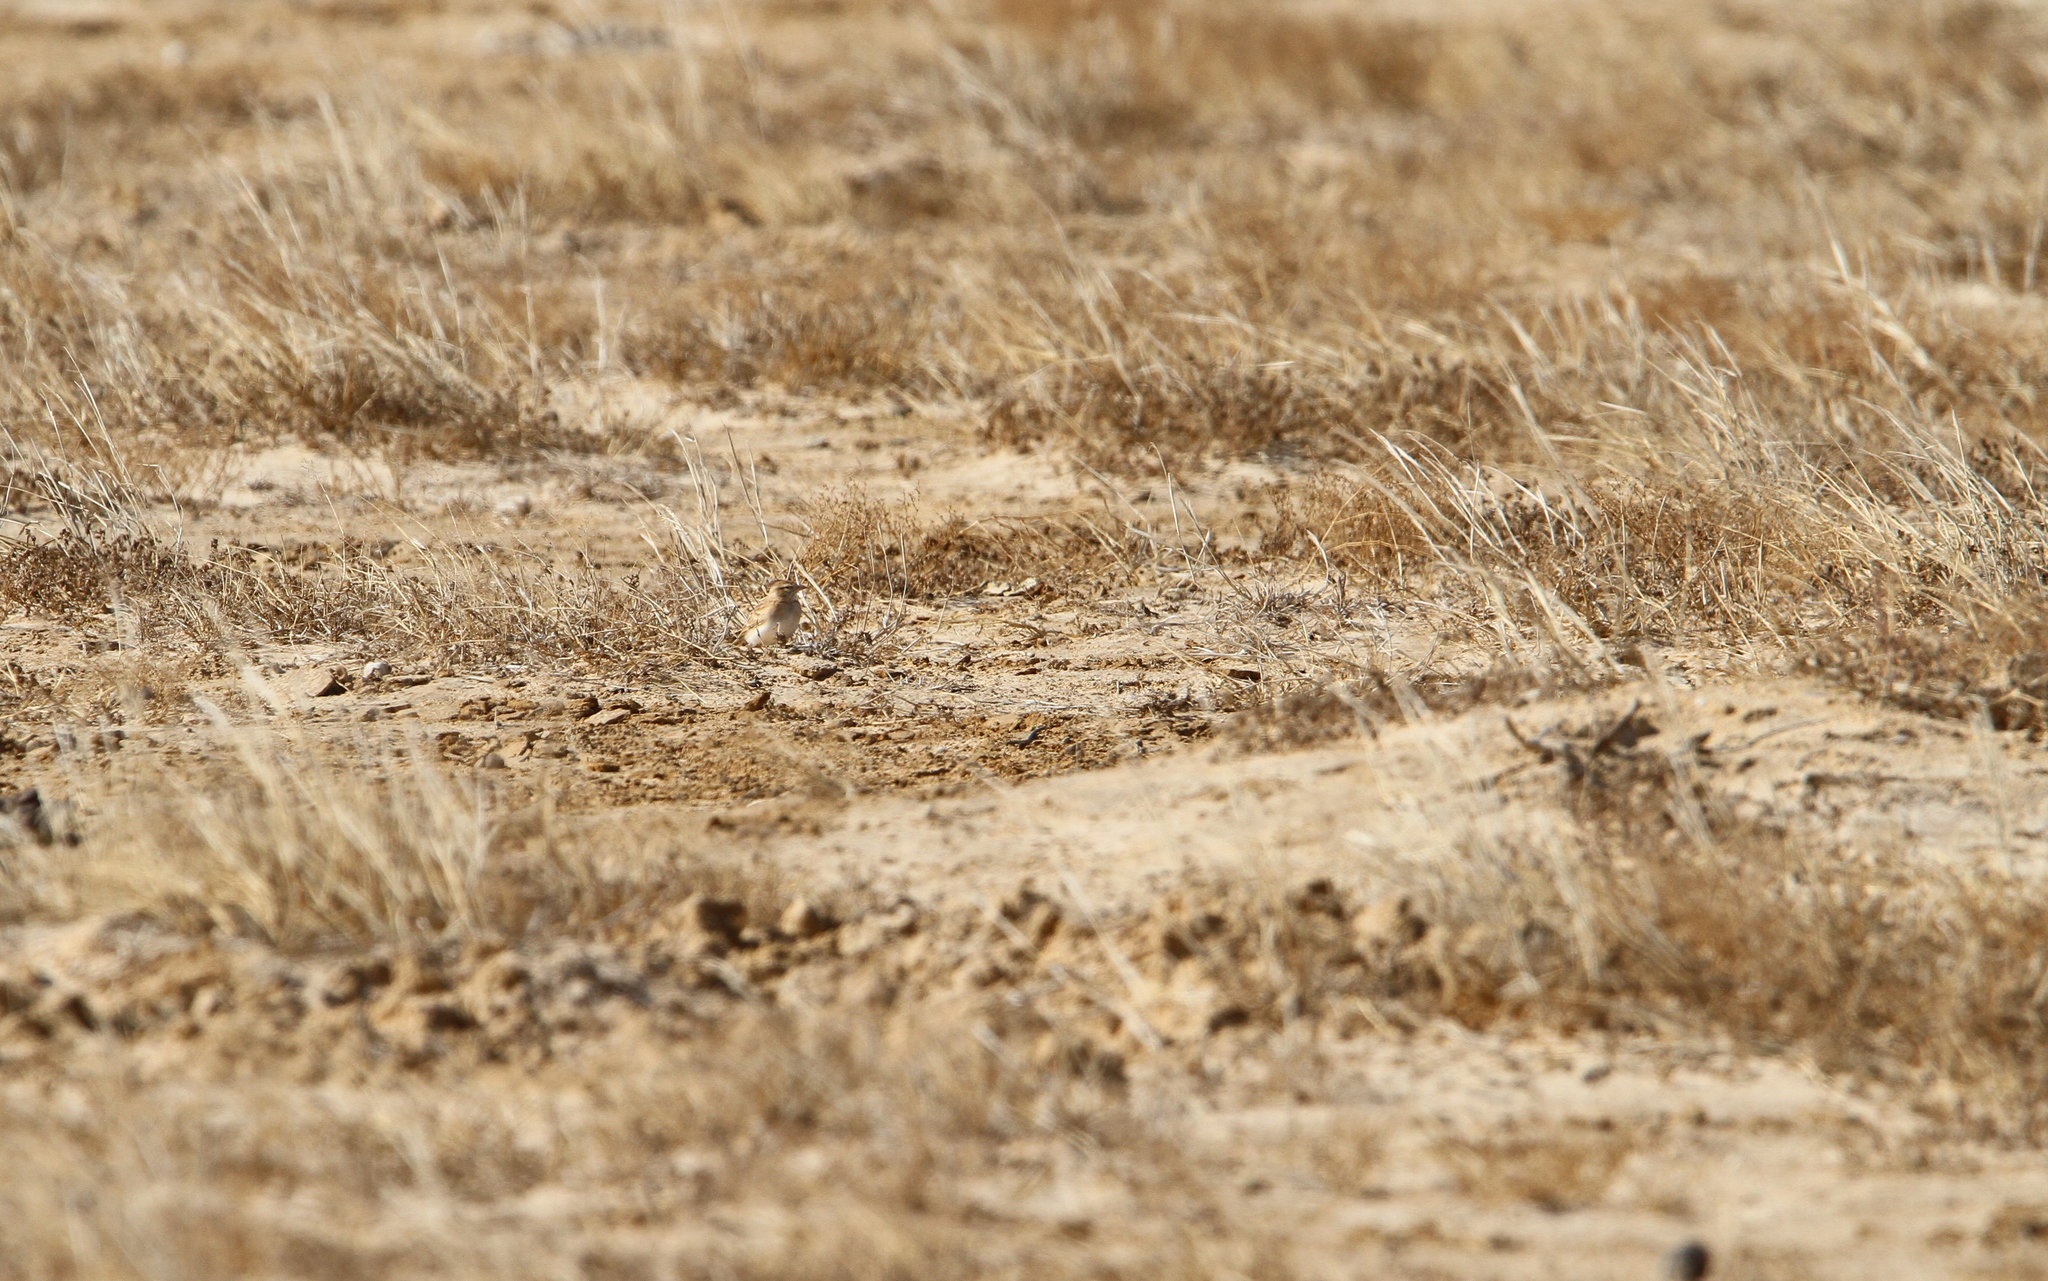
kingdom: Animalia
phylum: Chordata
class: Aves
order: Passeriformes
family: Alaudidae
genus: Calandrella
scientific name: Calandrella brachydactyla
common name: Greater short-toed lark
